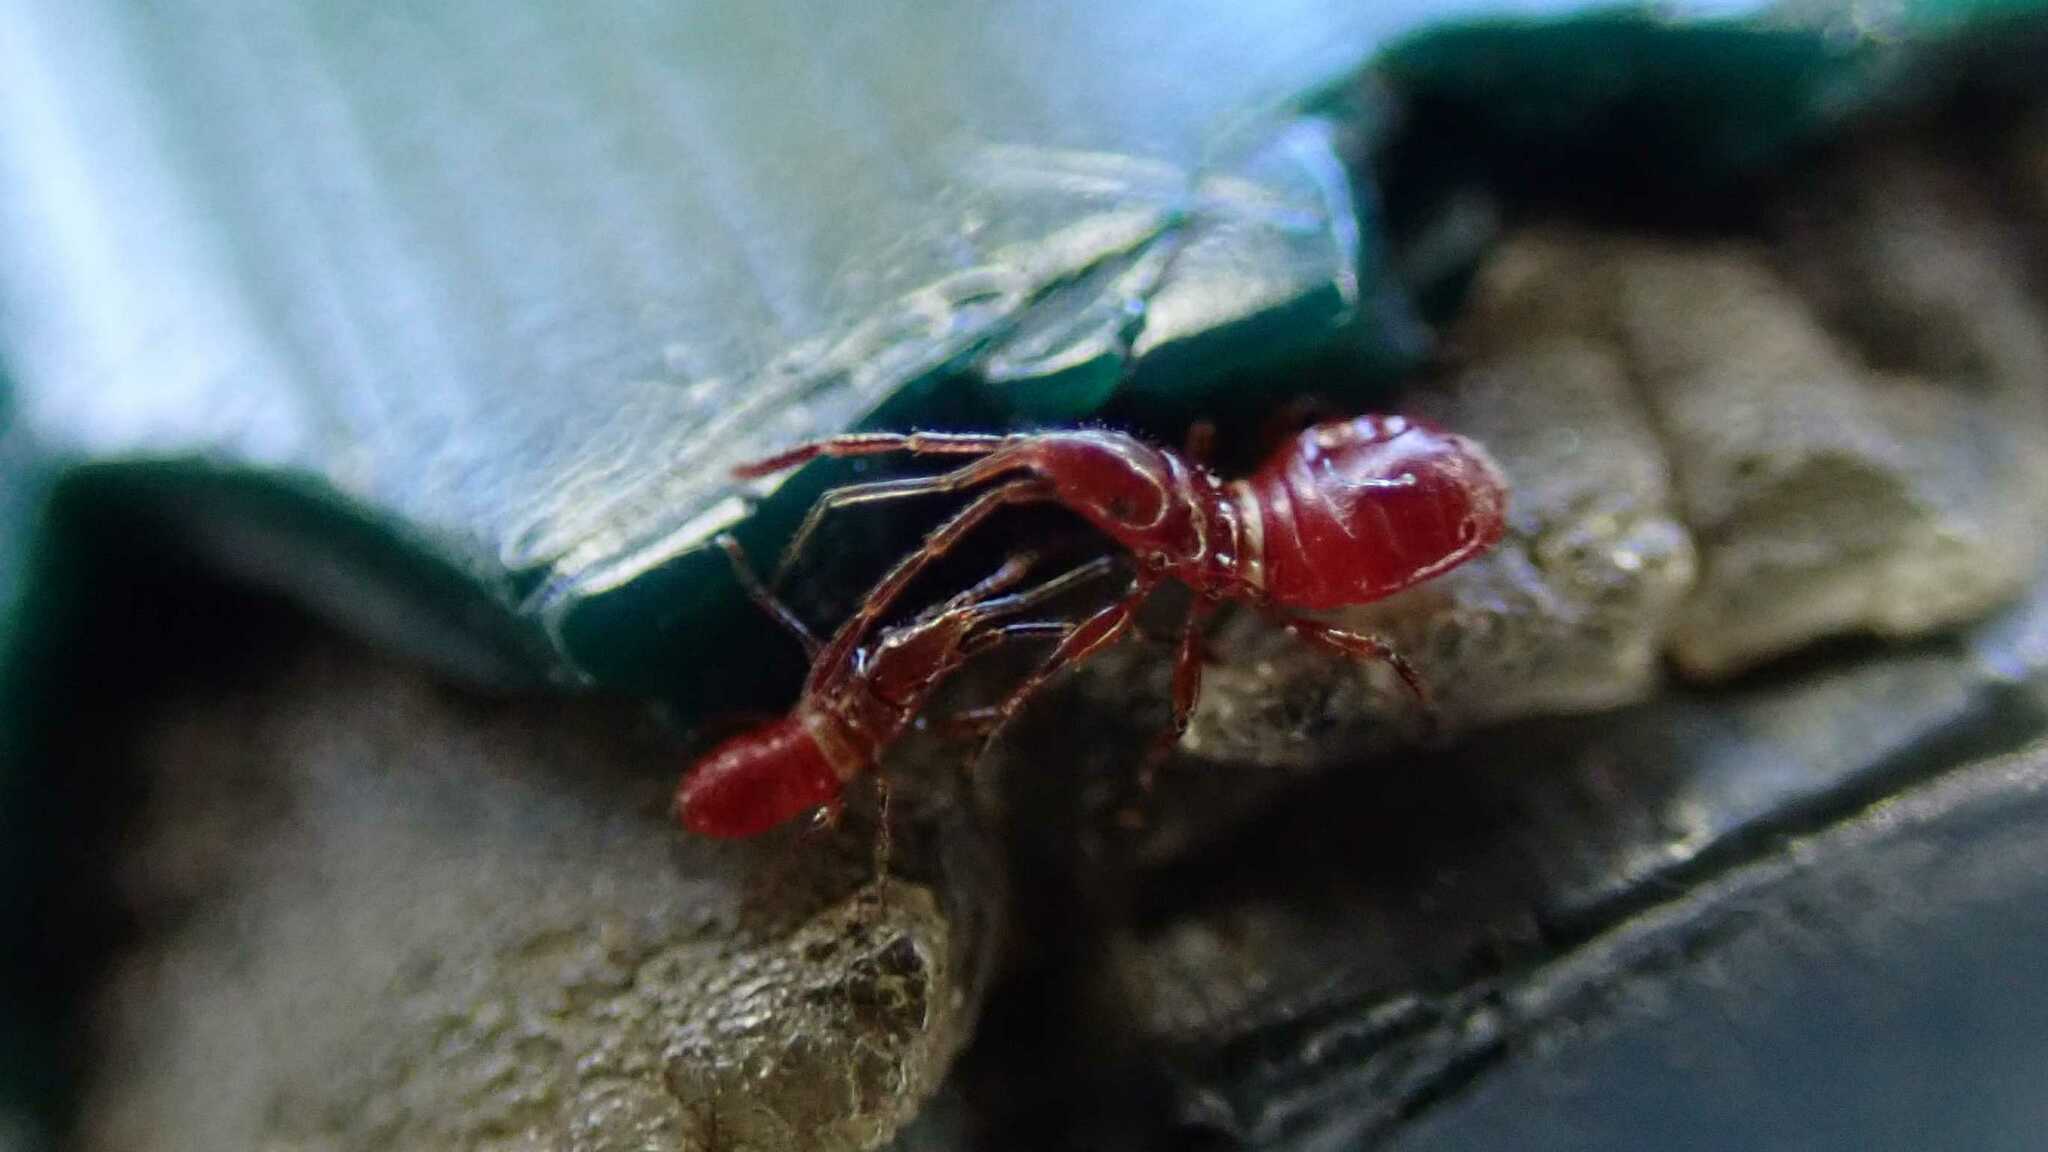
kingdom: Animalia
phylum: Arthropoda
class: Insecta
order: Hemiptera
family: Oxycarenidae
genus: Oxycarenus
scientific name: Oxycarenus lavaterae
